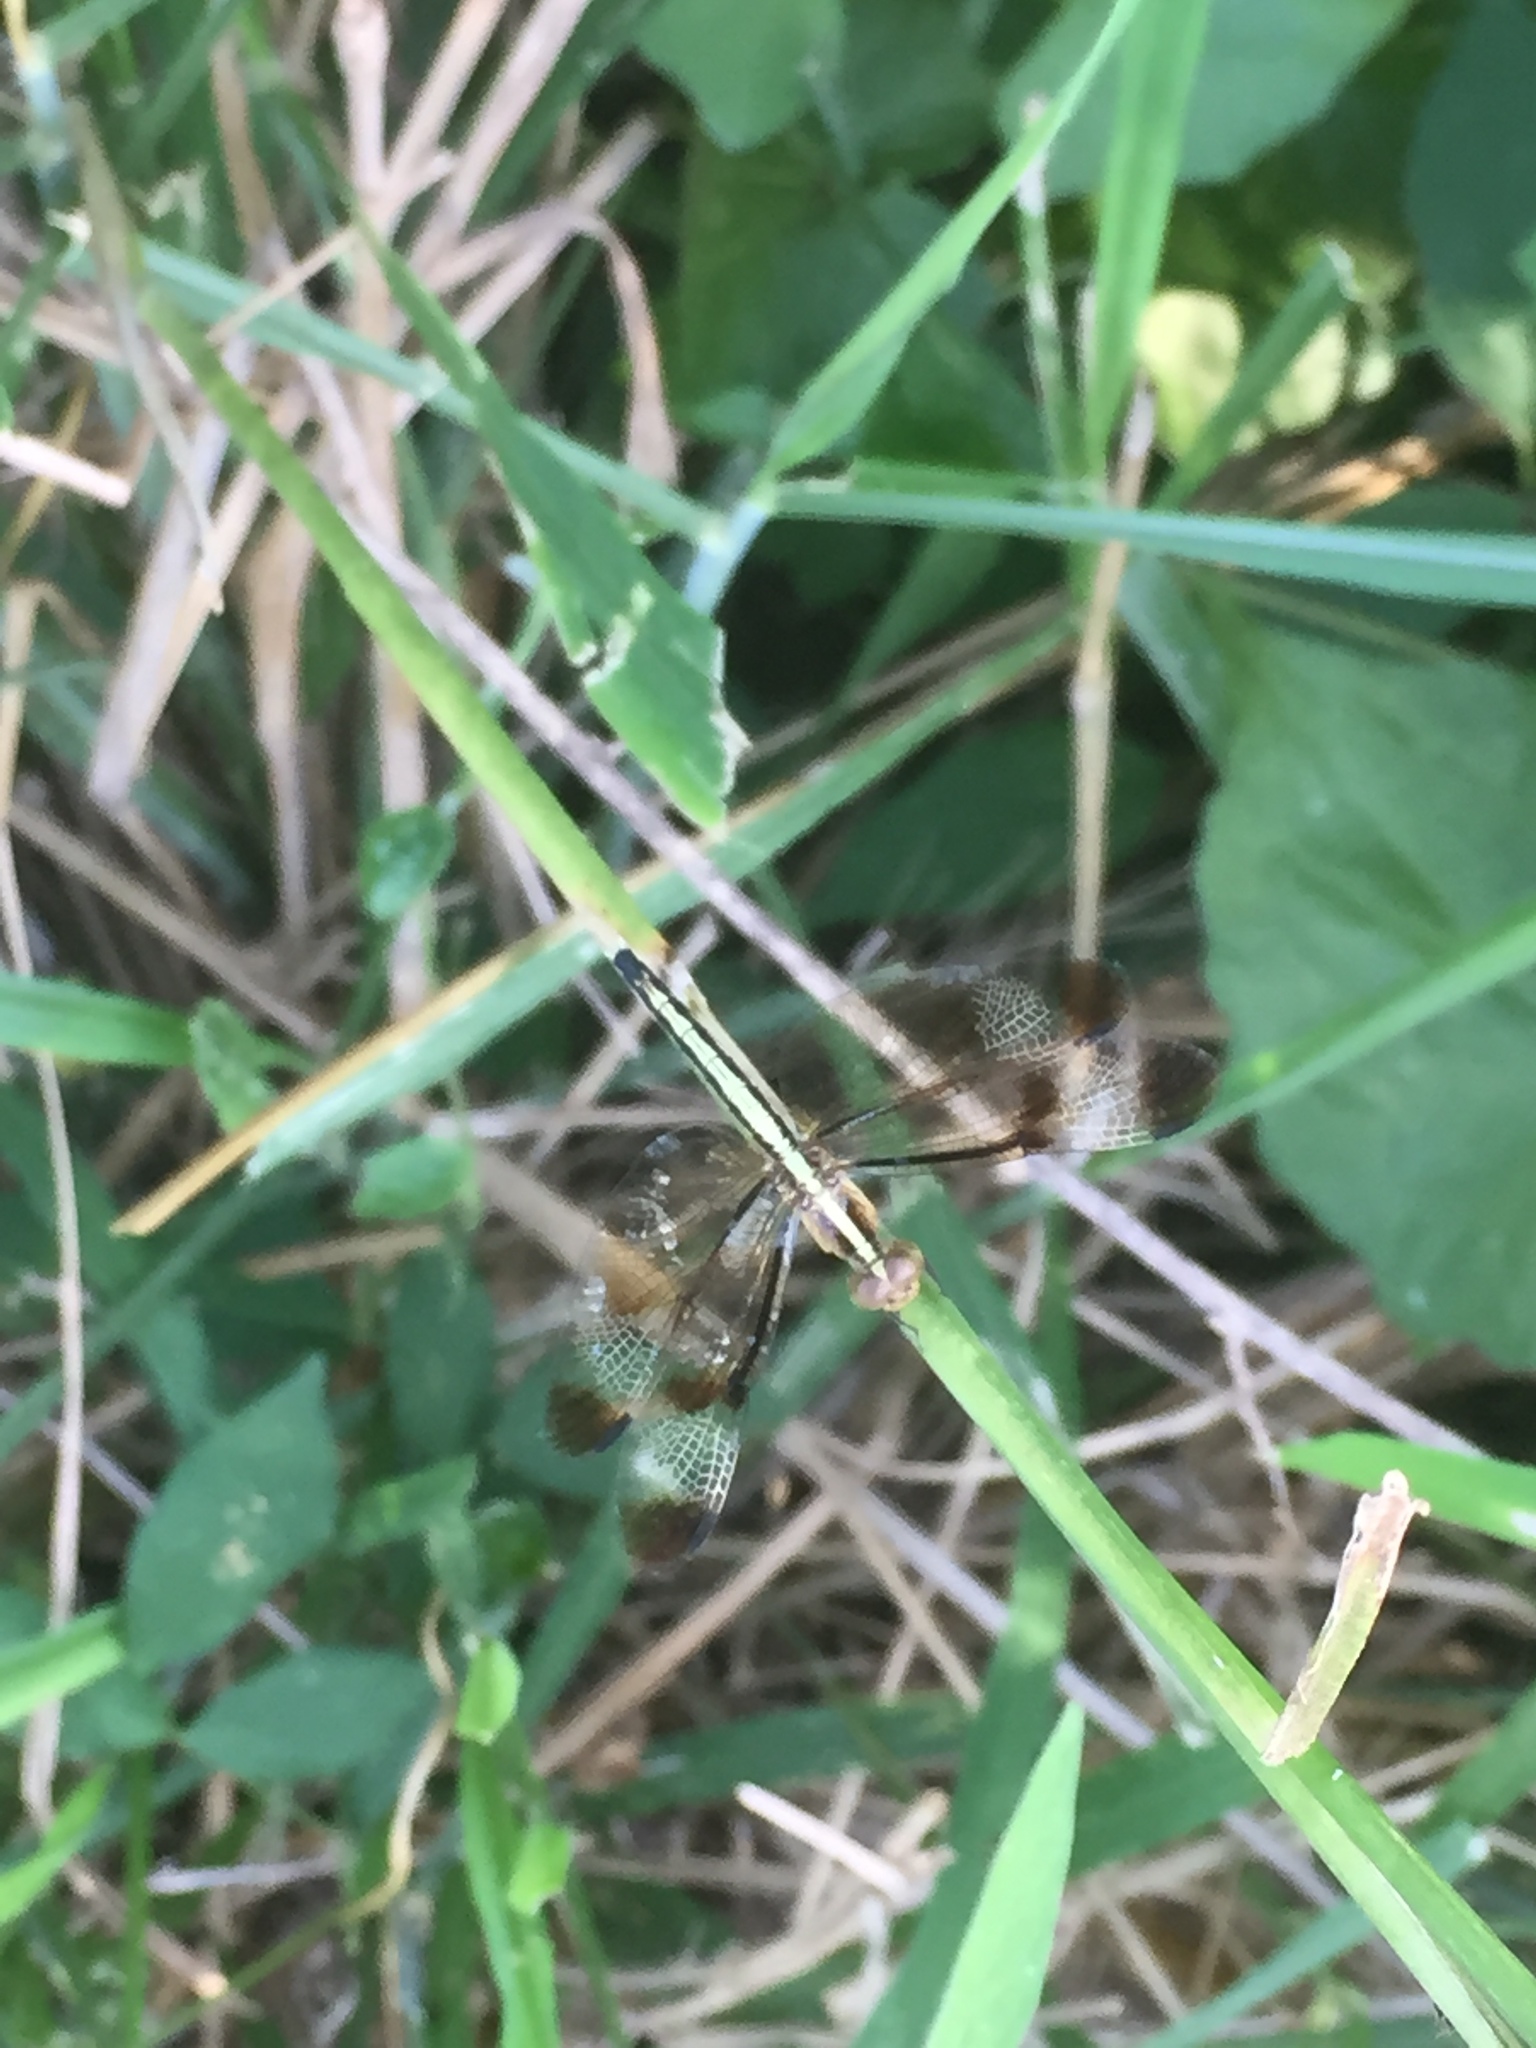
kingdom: Animalia
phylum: Arthropoda
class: Insecta
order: Odonata
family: Libellulidae
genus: Neurothemis
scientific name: Neurothemis tullia
